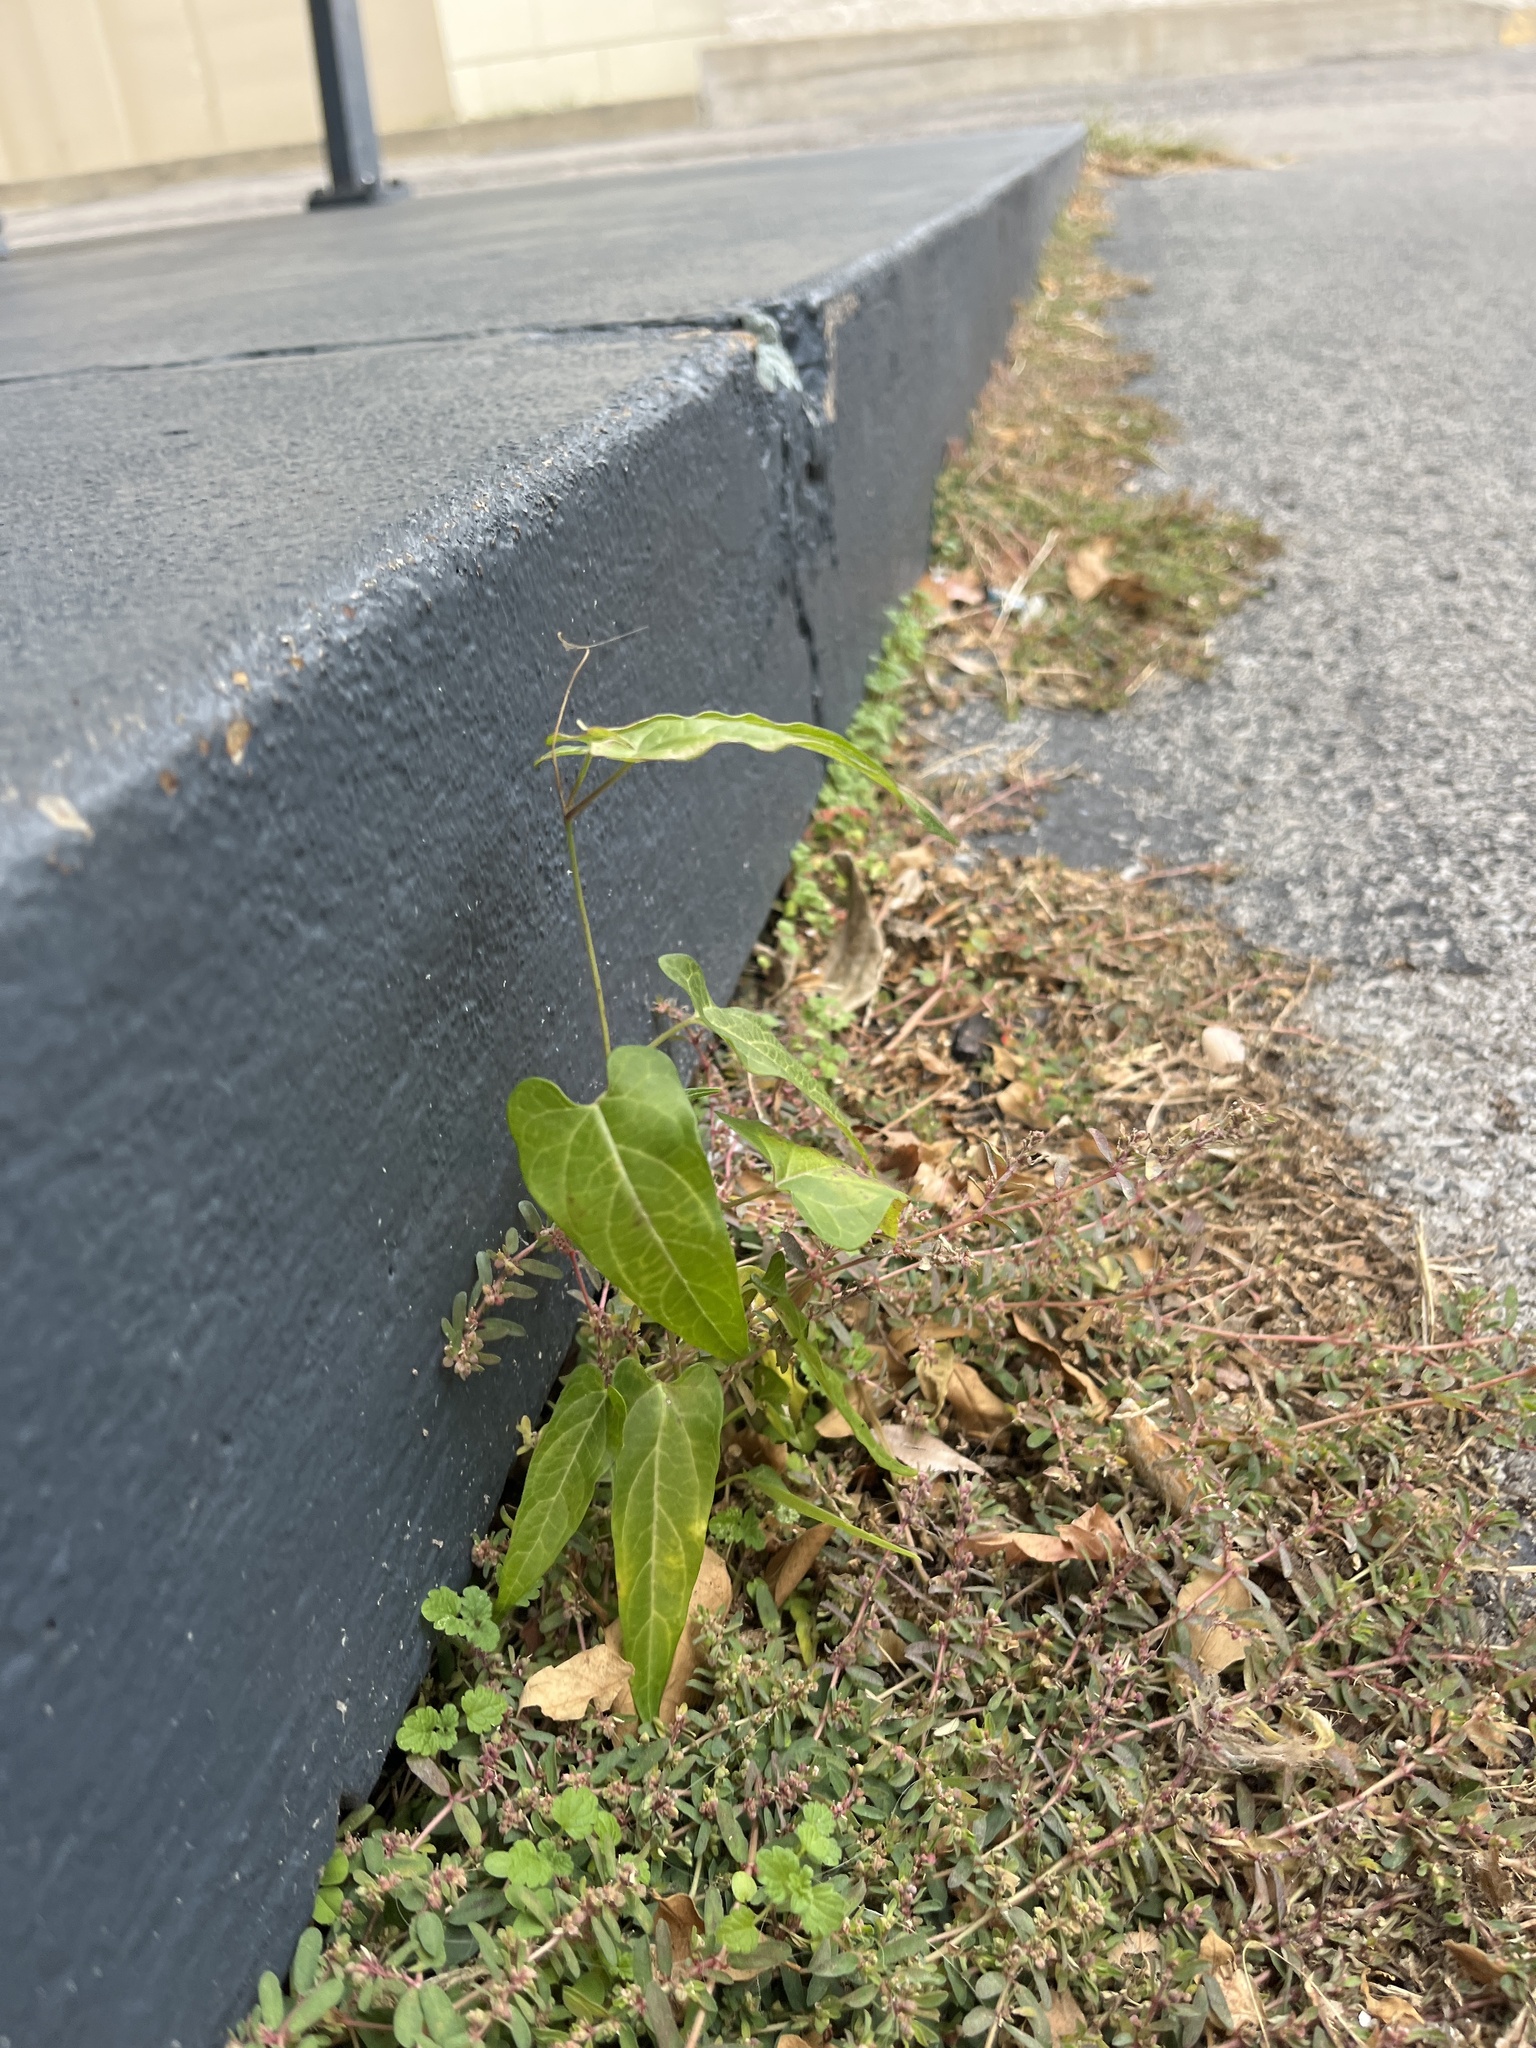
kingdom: Plantae
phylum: Tracheophyta
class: Magnoliopsida
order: Gentianales
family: Apocynaceae
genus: Cynanchum
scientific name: Cynanchum laeve
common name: Sandvine
